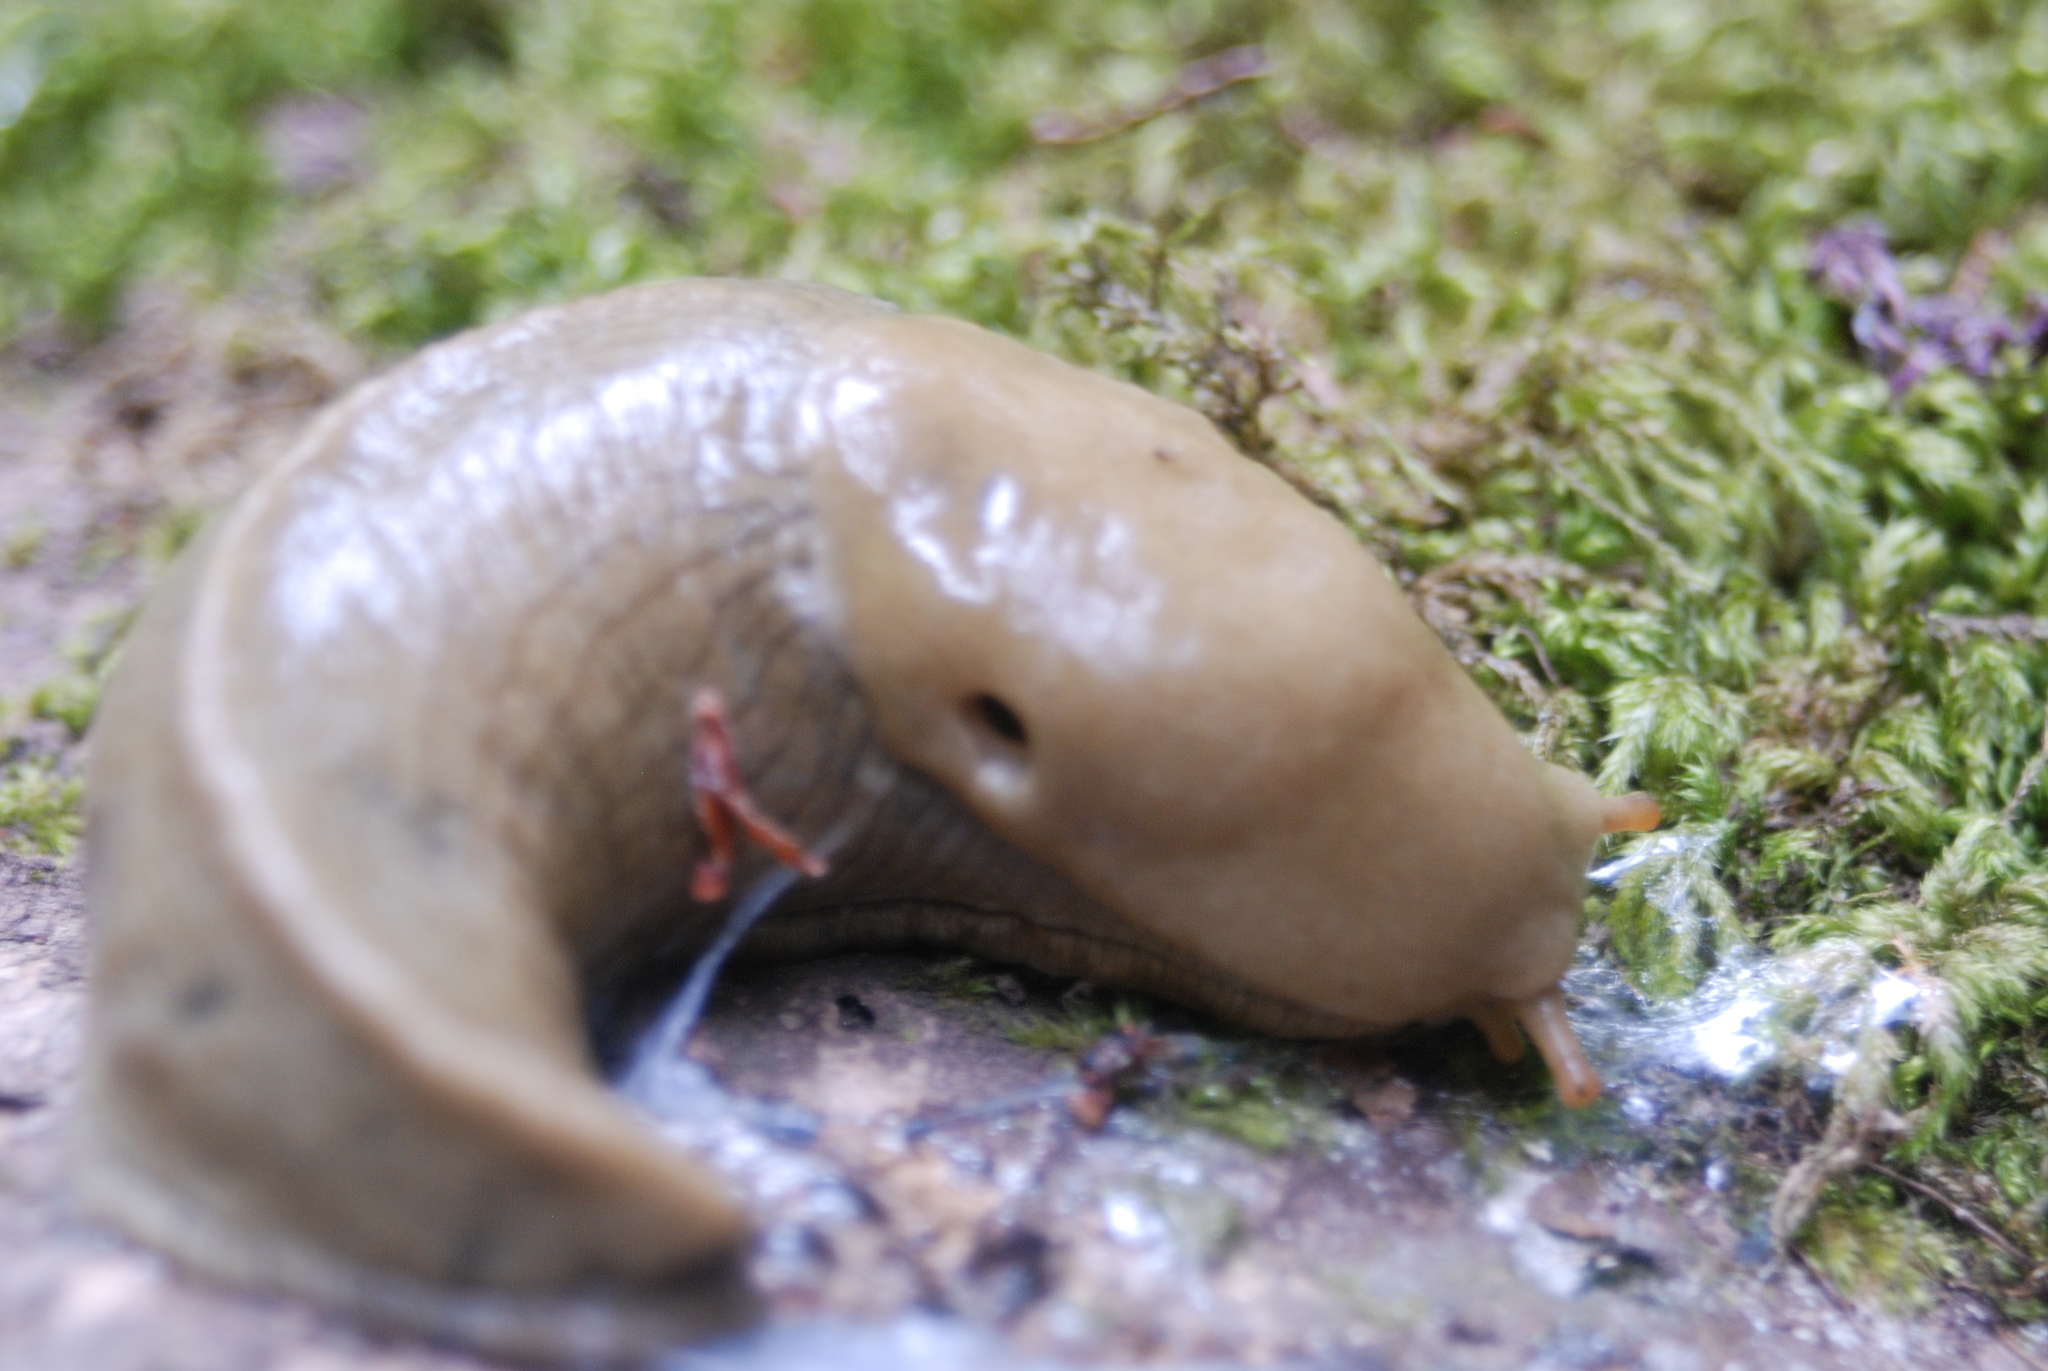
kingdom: Animalia
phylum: Mollusca
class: Gastropoda
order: Stylommatophora
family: Ariolimacidae
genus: Ariolimax
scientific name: Ariolimax columbianus
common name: Pacific banana slug
